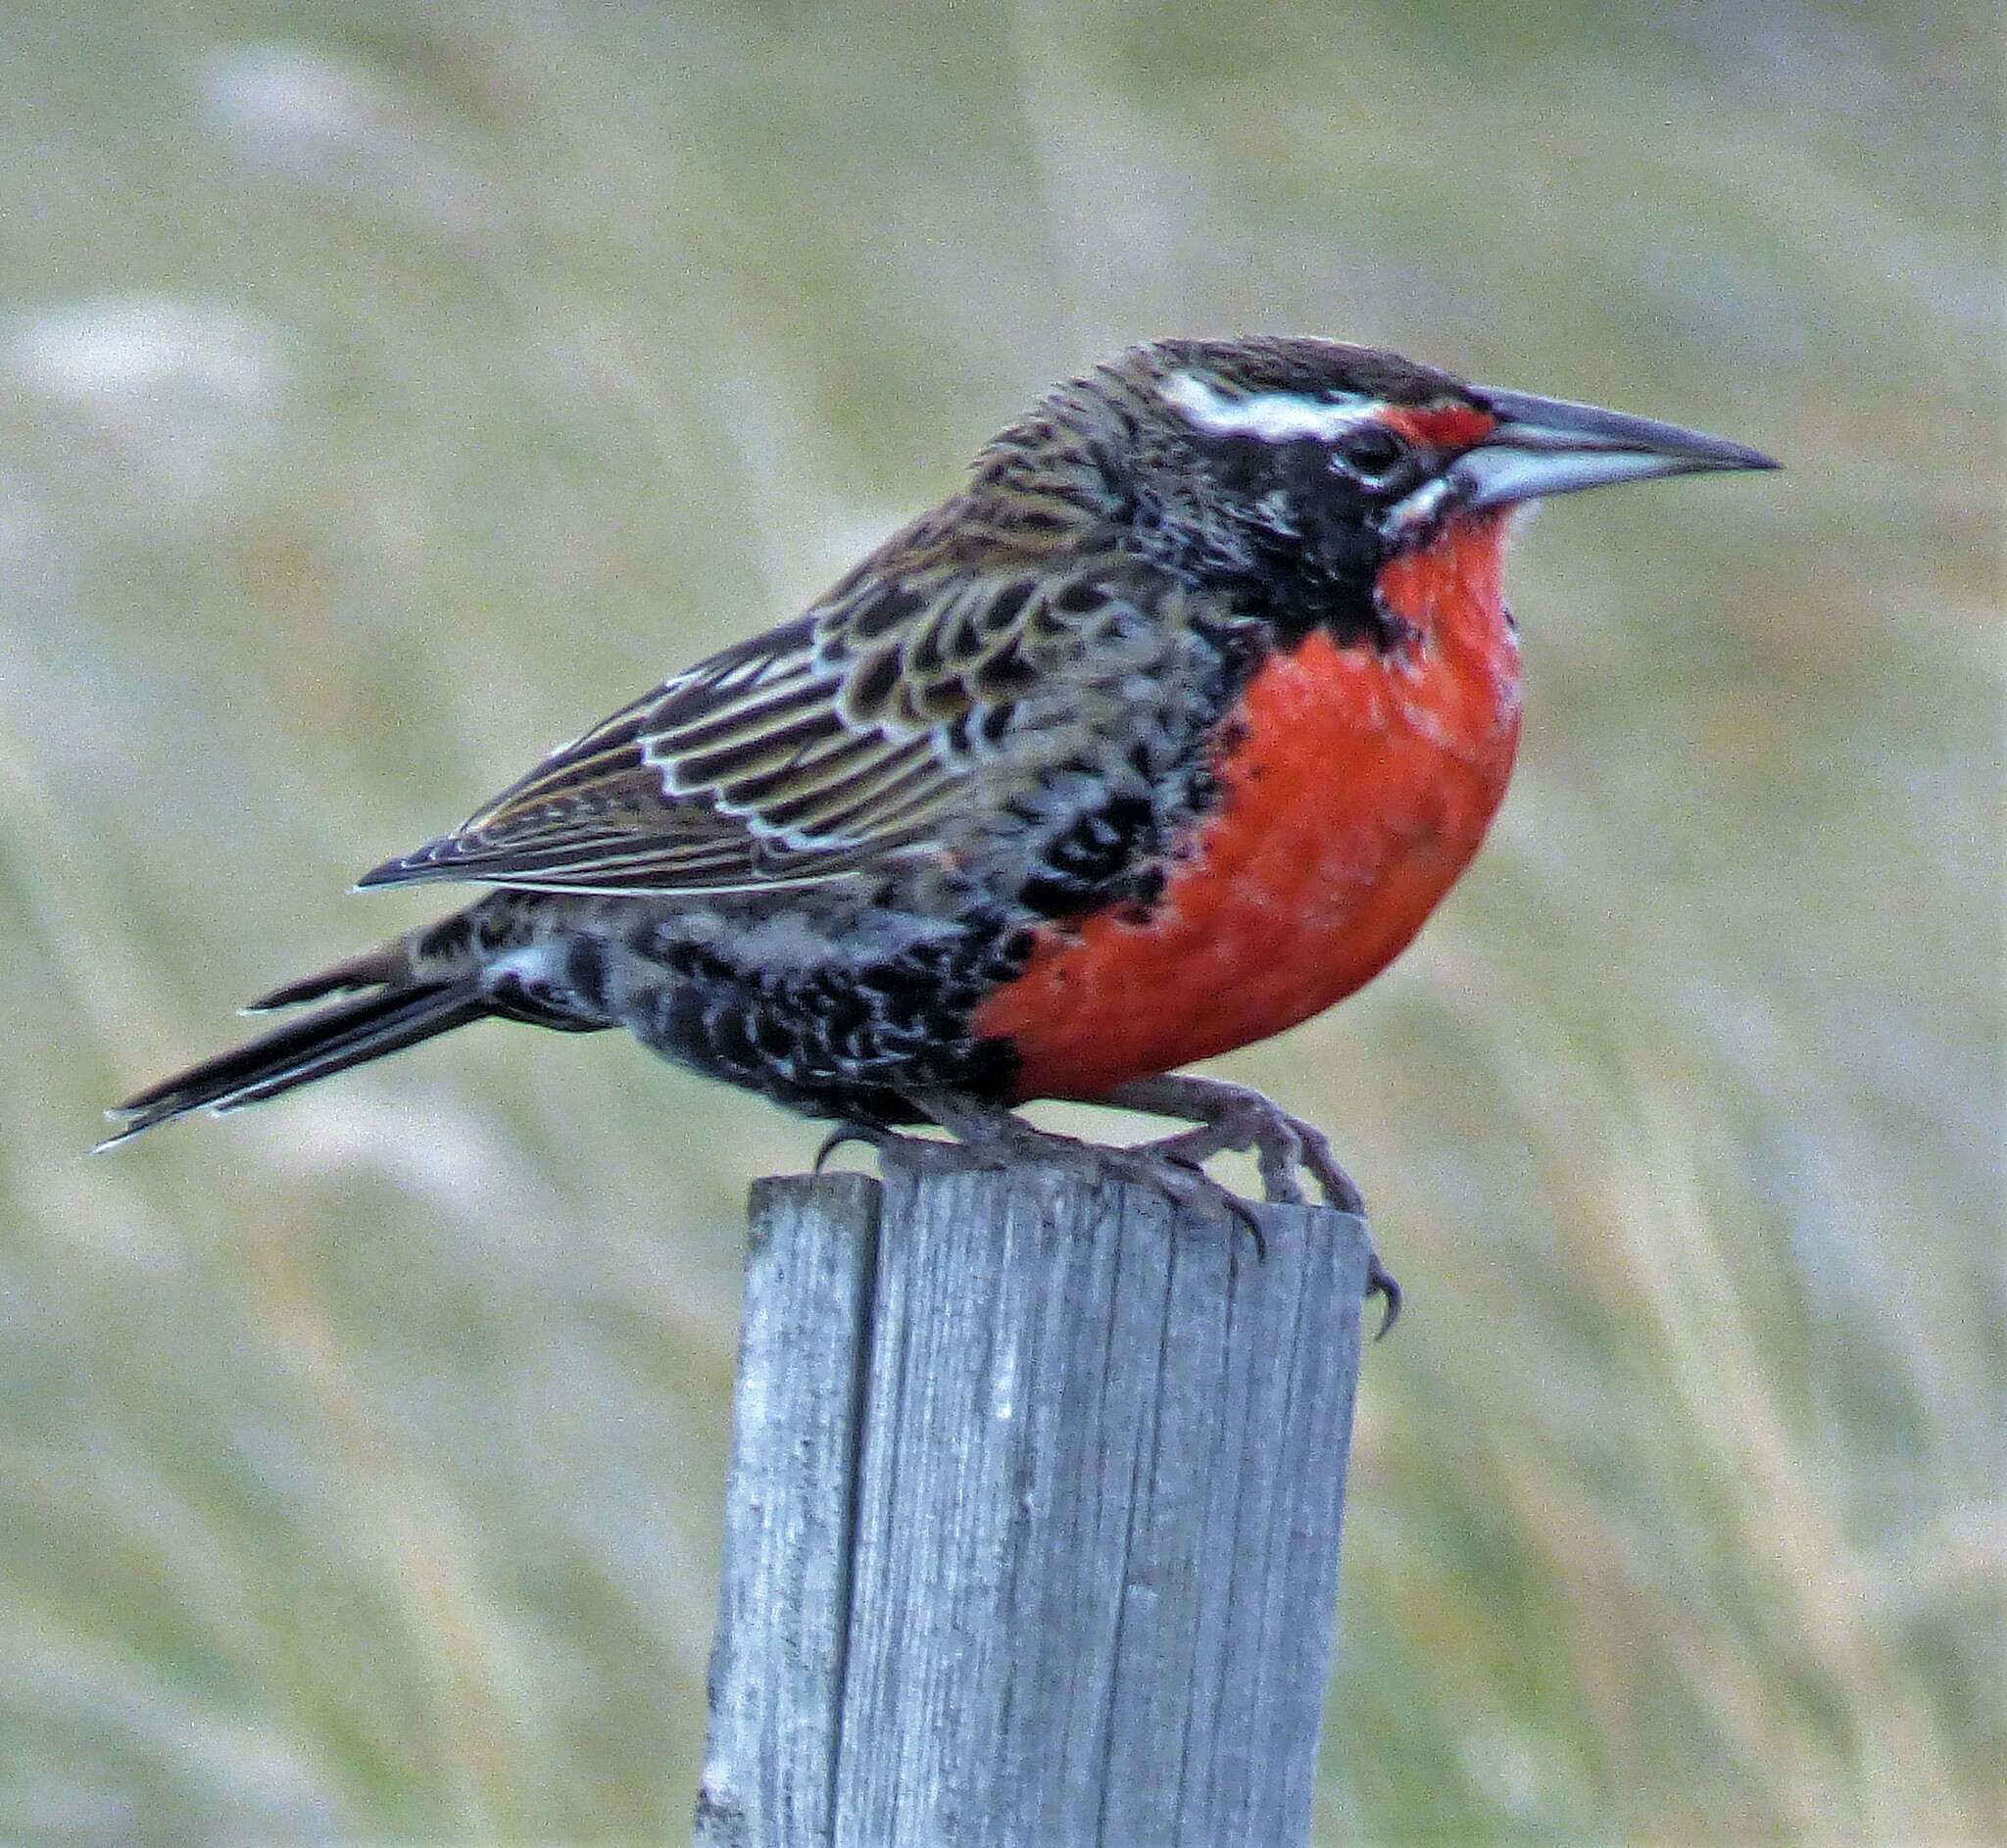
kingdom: Animalia
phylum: Chordata
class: Aves
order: Passeriformes
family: Icteridae
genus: Sturnella
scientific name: Sturnella loyca
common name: Long-tailed meadowlark
